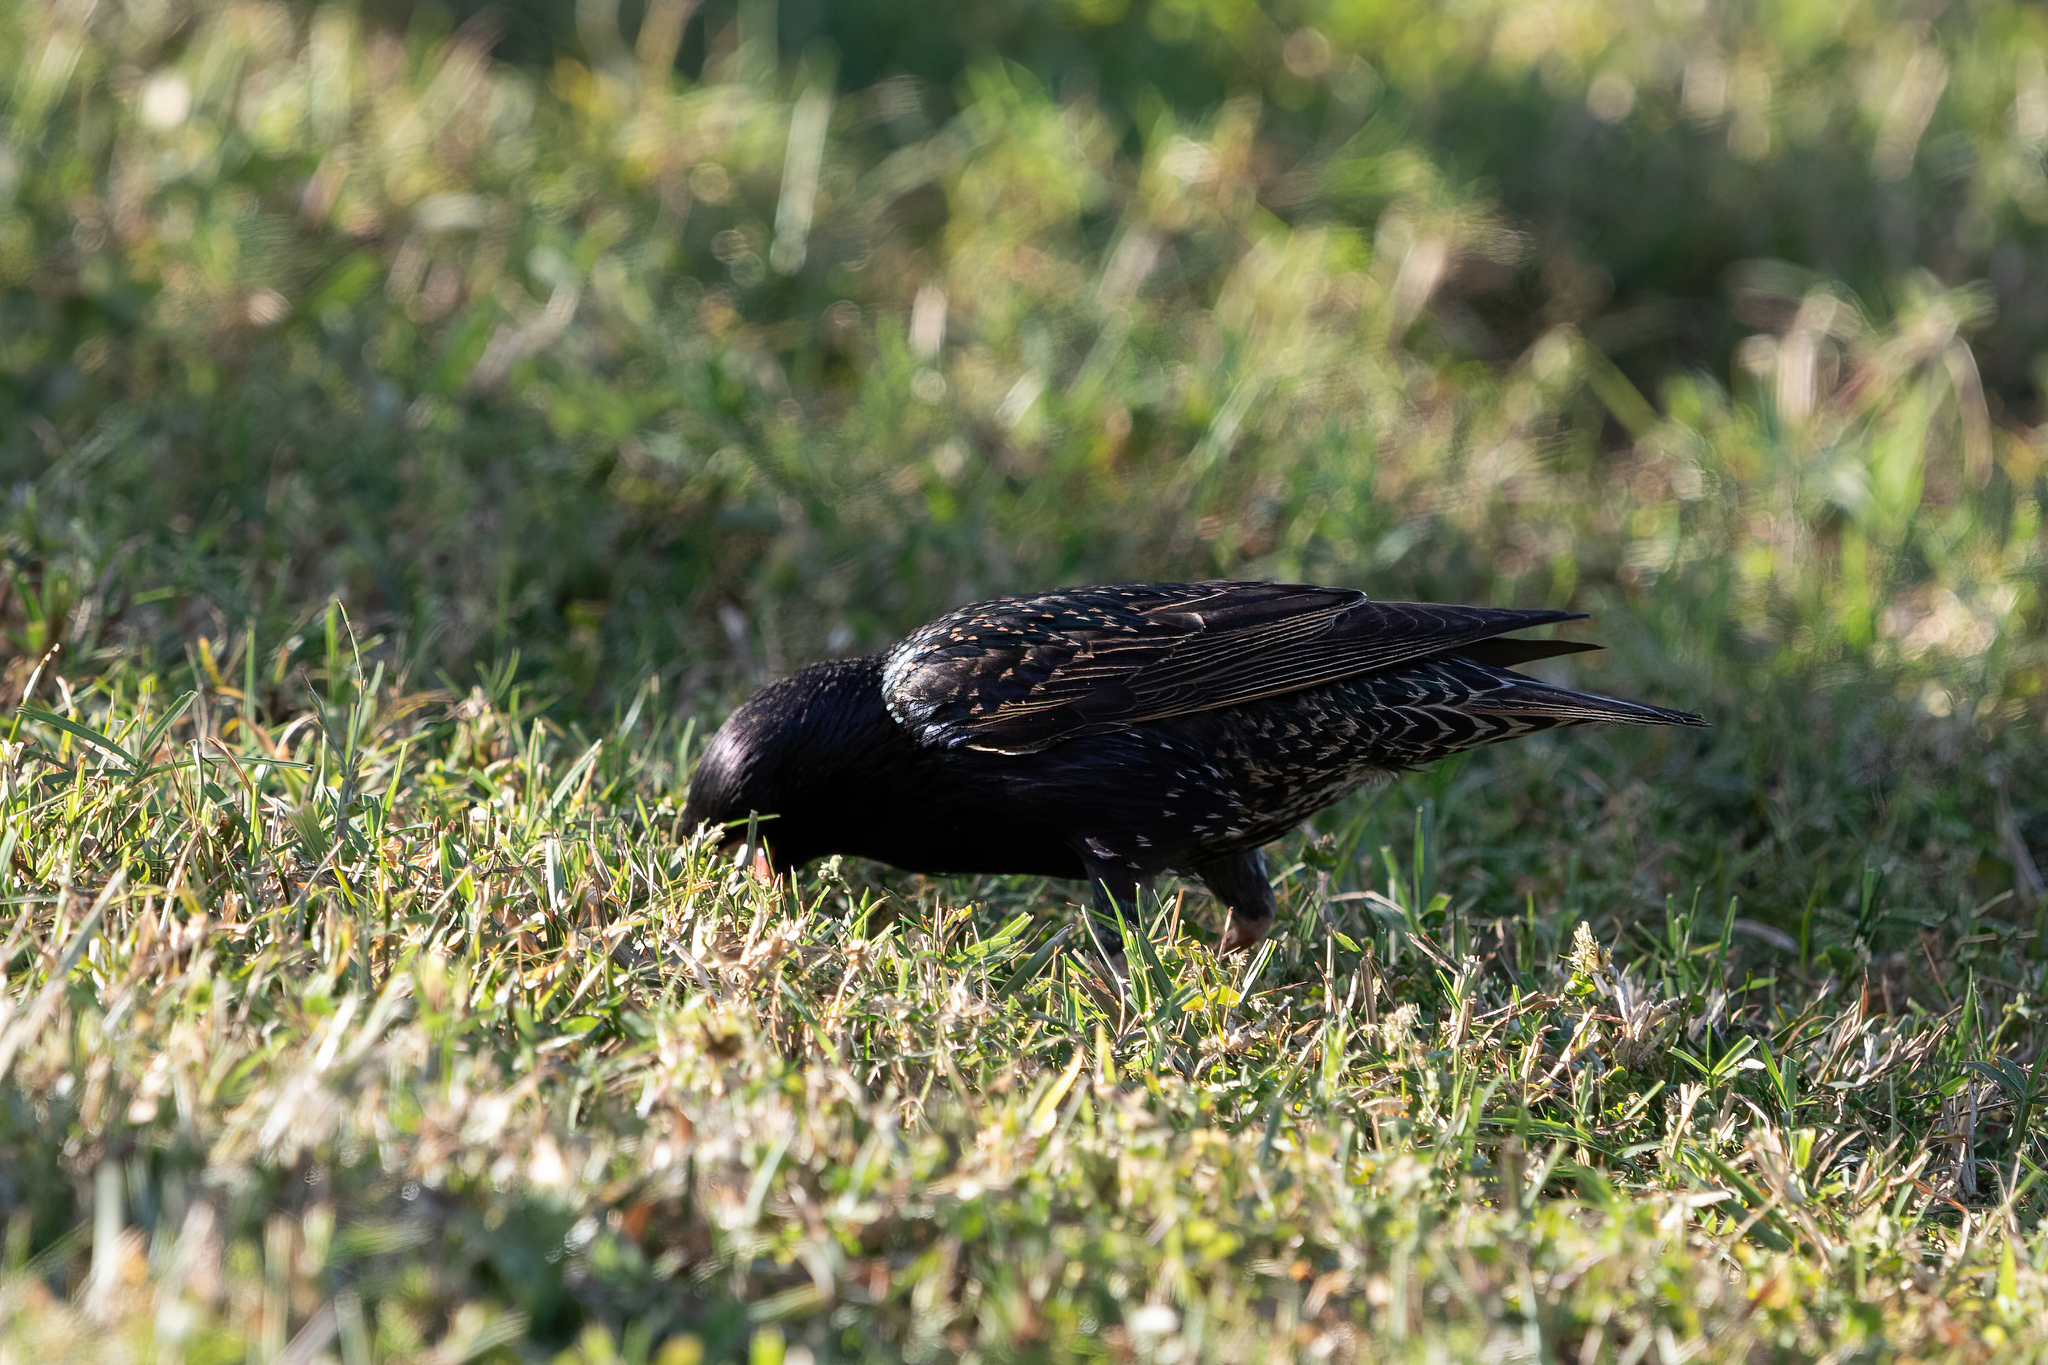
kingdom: Animalia
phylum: Chordata
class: Aves
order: Passeriformes
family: Sturnidae
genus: Sturnus
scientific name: Sturnus vulgaris
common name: Common starling
